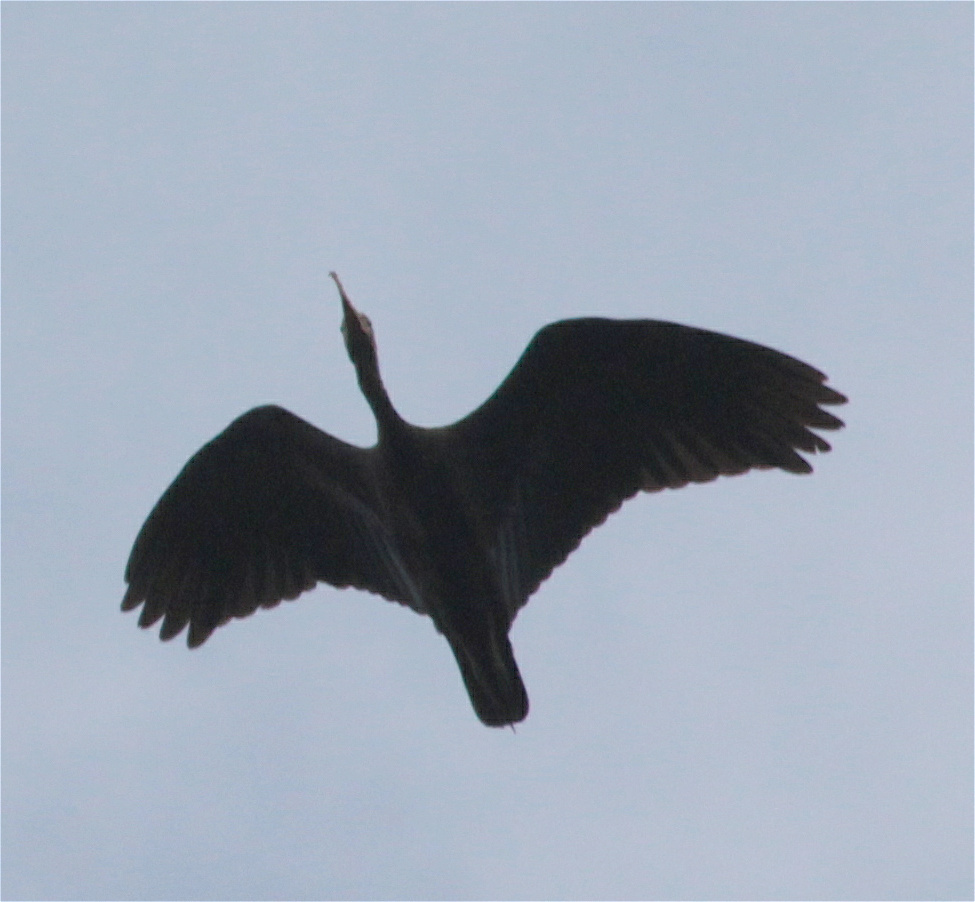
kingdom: Animalia
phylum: Chordata
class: Aves
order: Pelecaniformes
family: Threskiornithidae
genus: Phimosus
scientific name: Phimosus infuscatus
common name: Bare-faced ibis
